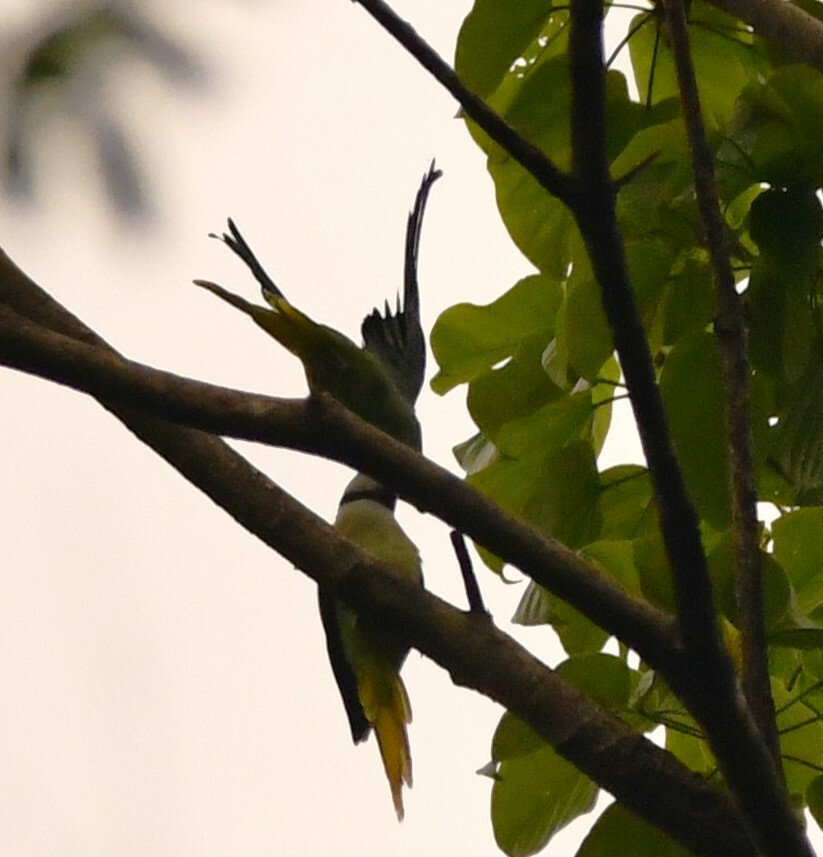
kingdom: Animalia
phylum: Chordata
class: Aves
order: Psittaciformes
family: Psittacidae
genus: Psittacula
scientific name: Psittacula columboides
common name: Blue-winged parakeet
